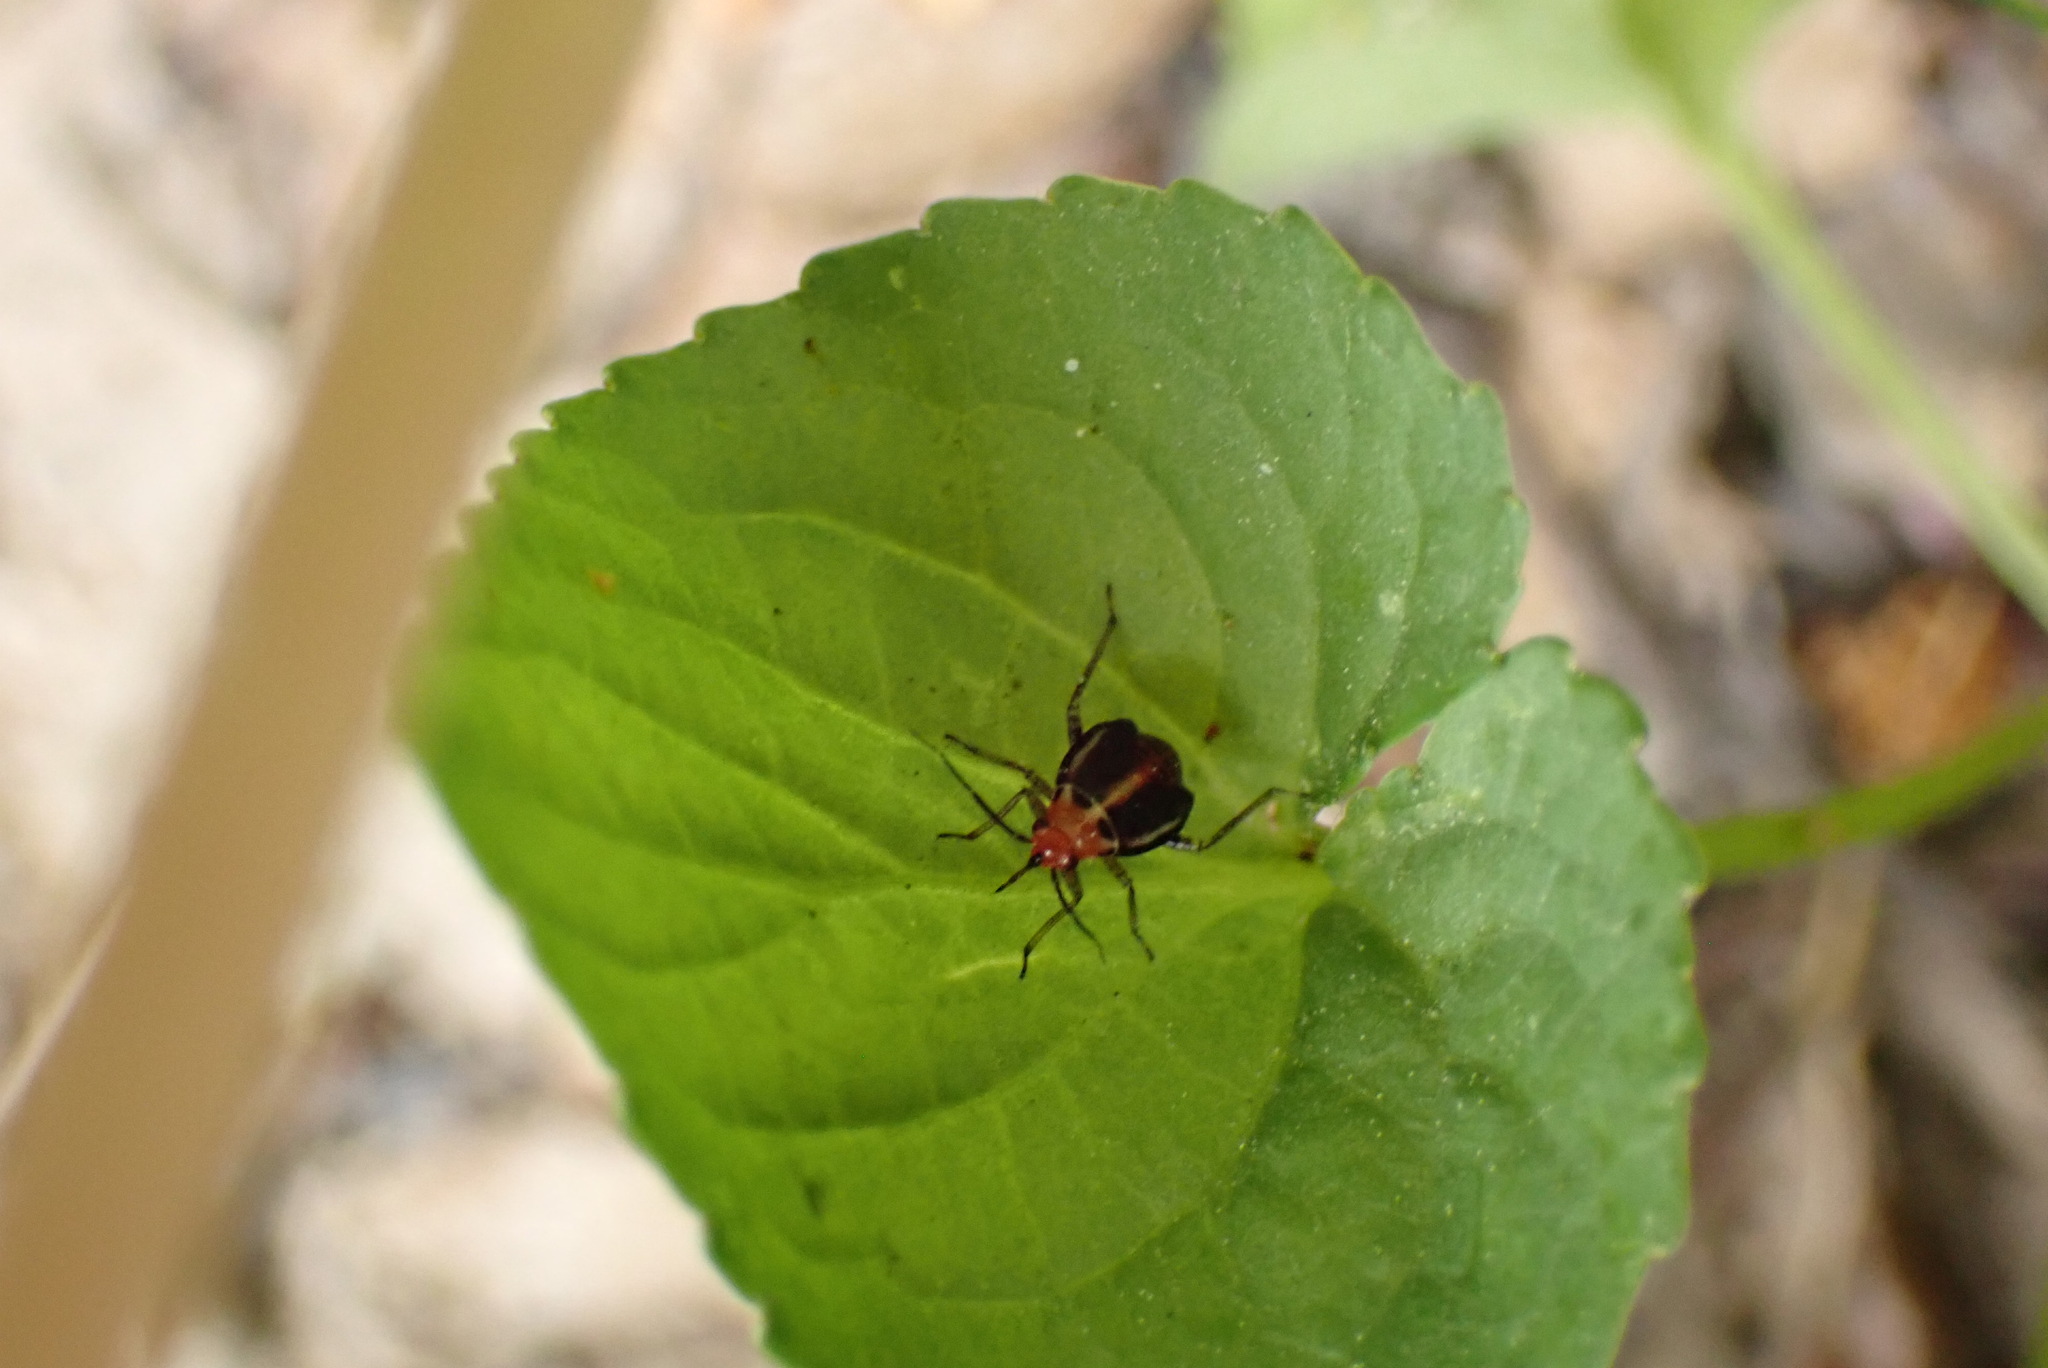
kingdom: Animalia
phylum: Arthropoda
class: Insecta
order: Hemiptera
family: Miridae
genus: Poecilocapsus
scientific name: Poecilocapsus lineatus
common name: Four-lined plant bug
